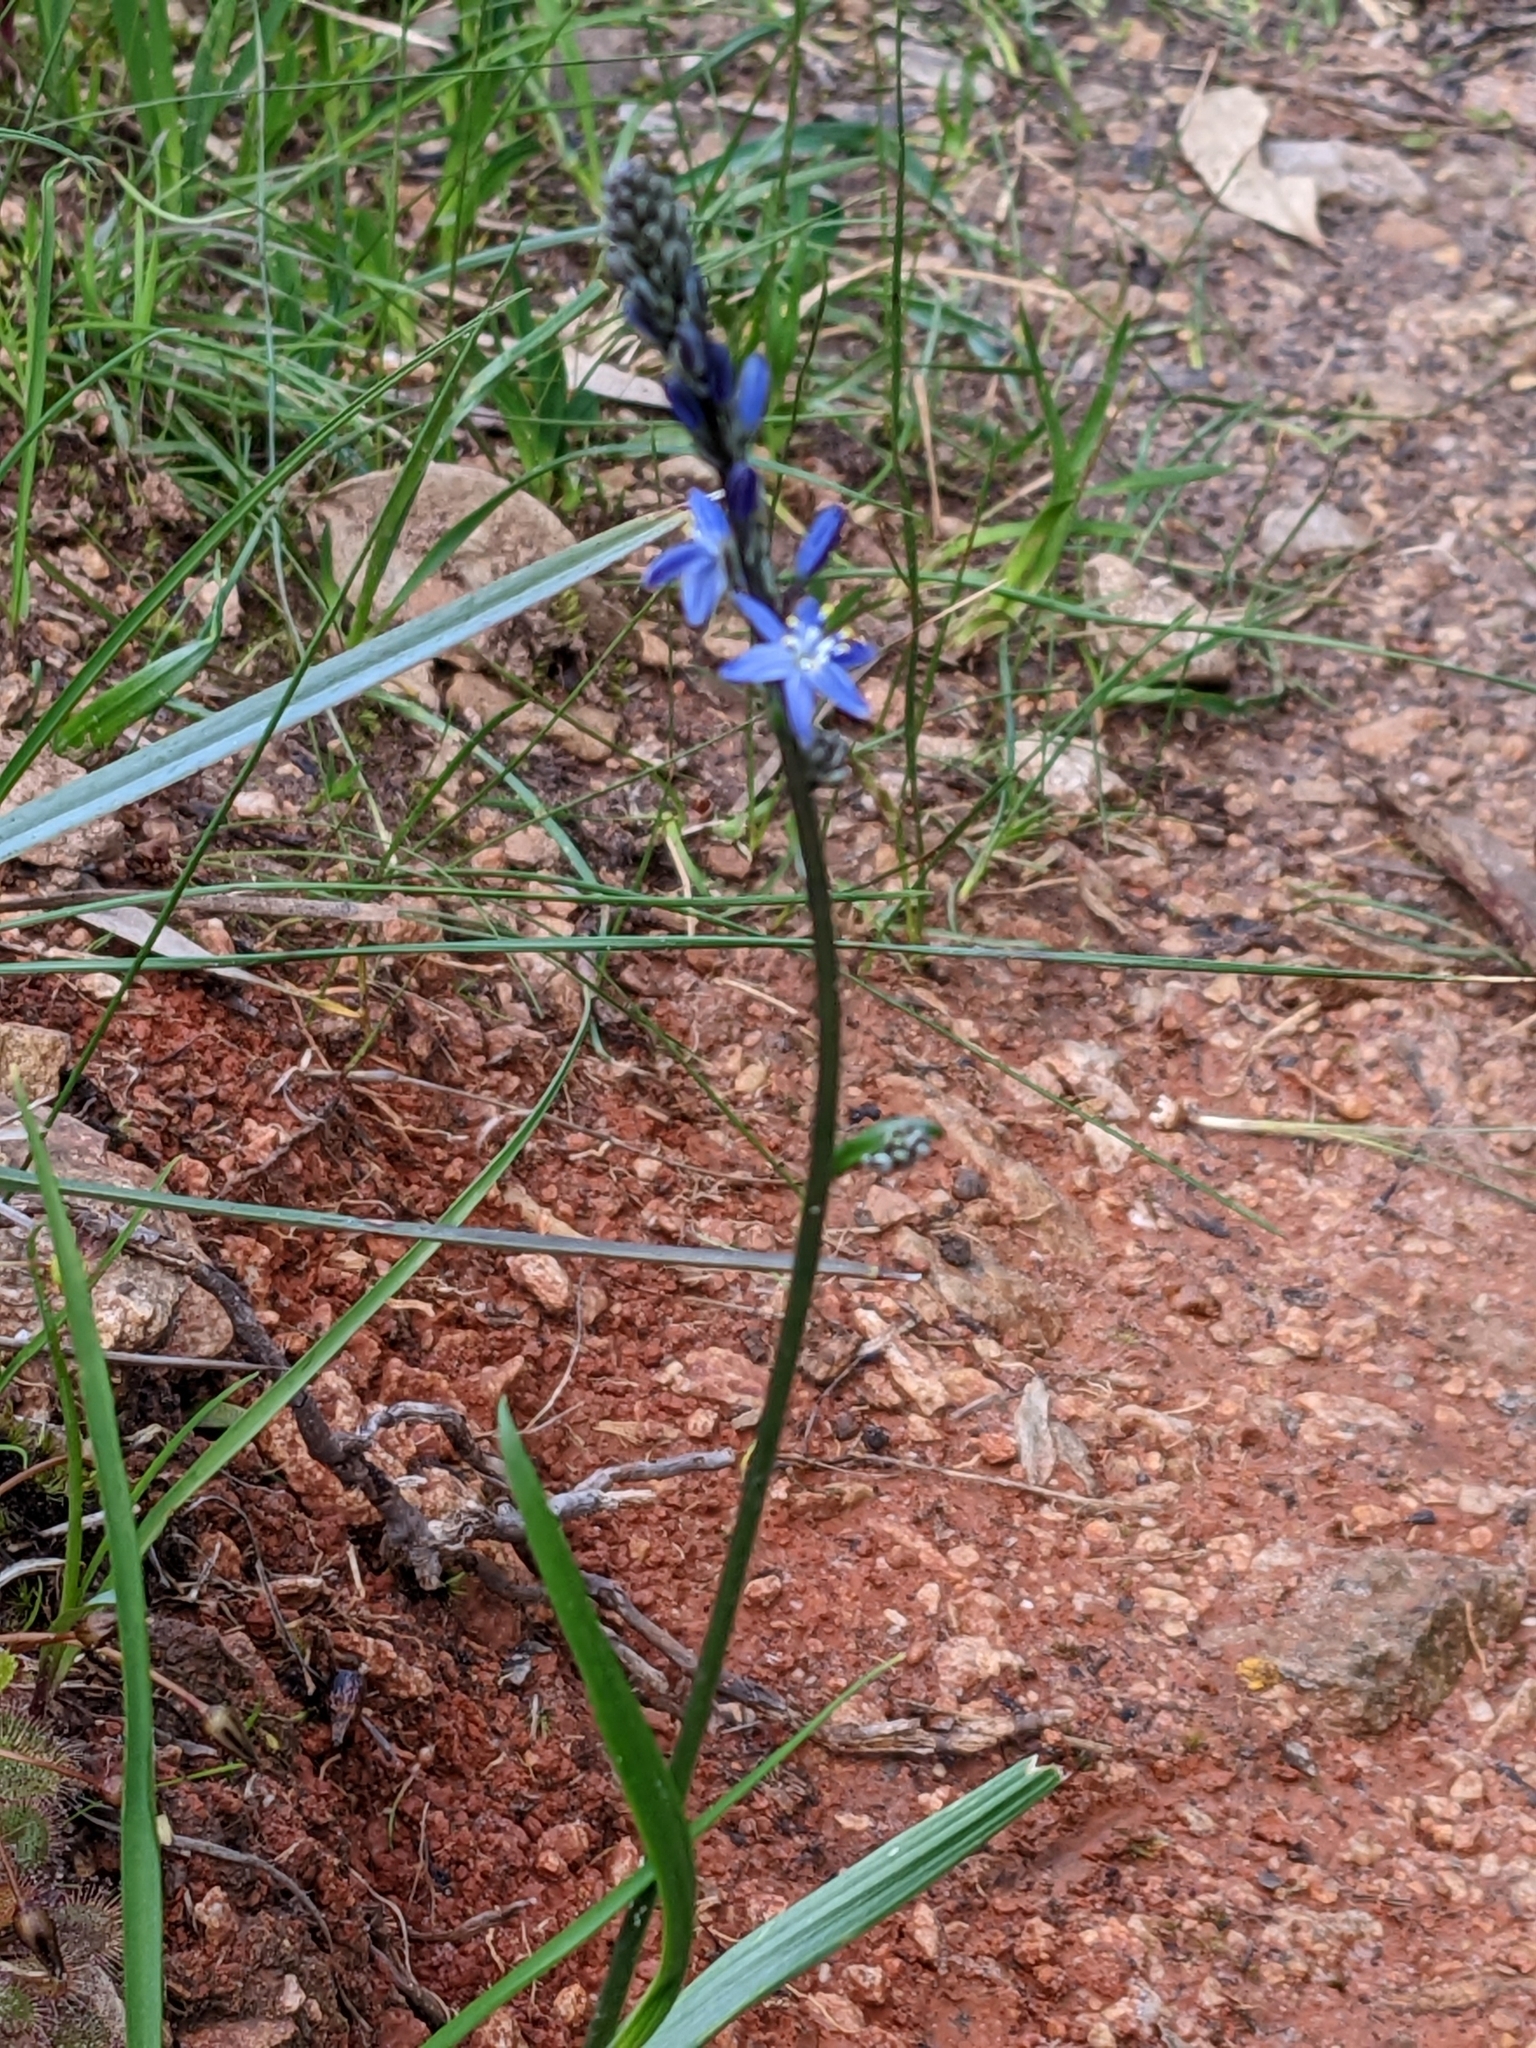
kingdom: Plantae
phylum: Tracheophyta
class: Liliopsida
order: Asparagales
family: Asphodelaceae
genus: Caesia
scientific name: Caesia calliantha
